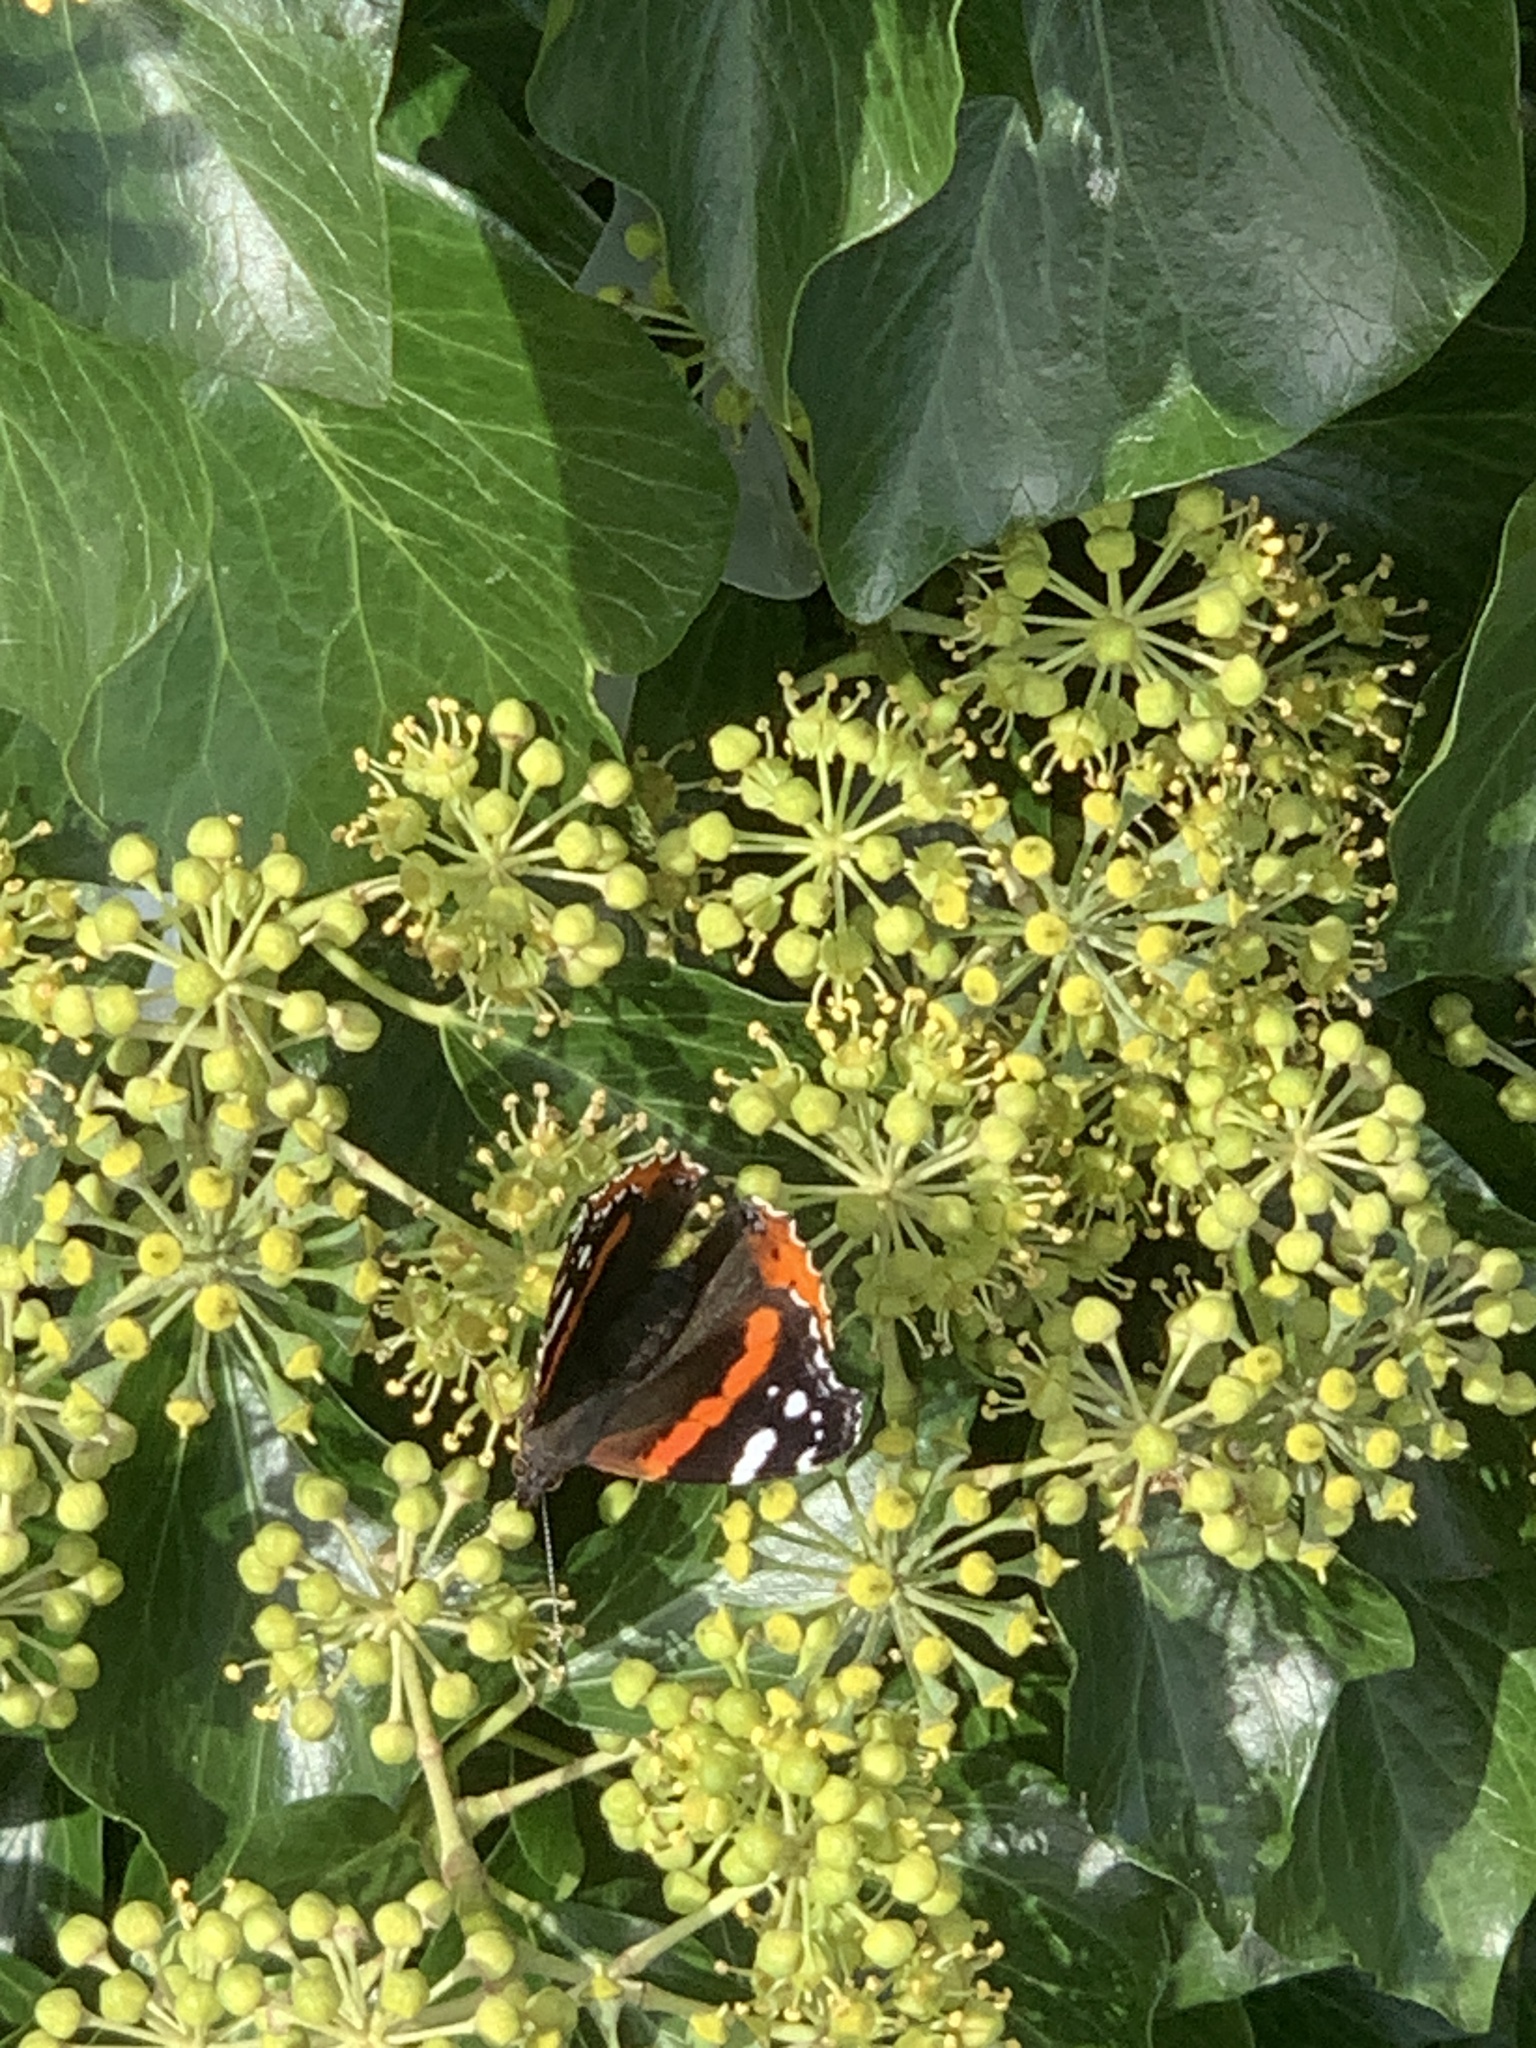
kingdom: Animalia
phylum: Arthropoda
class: Insecta
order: Lepidoptera
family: Nymphalidae
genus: Vanessa
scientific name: Vanessa atalanta
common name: Red admiral
